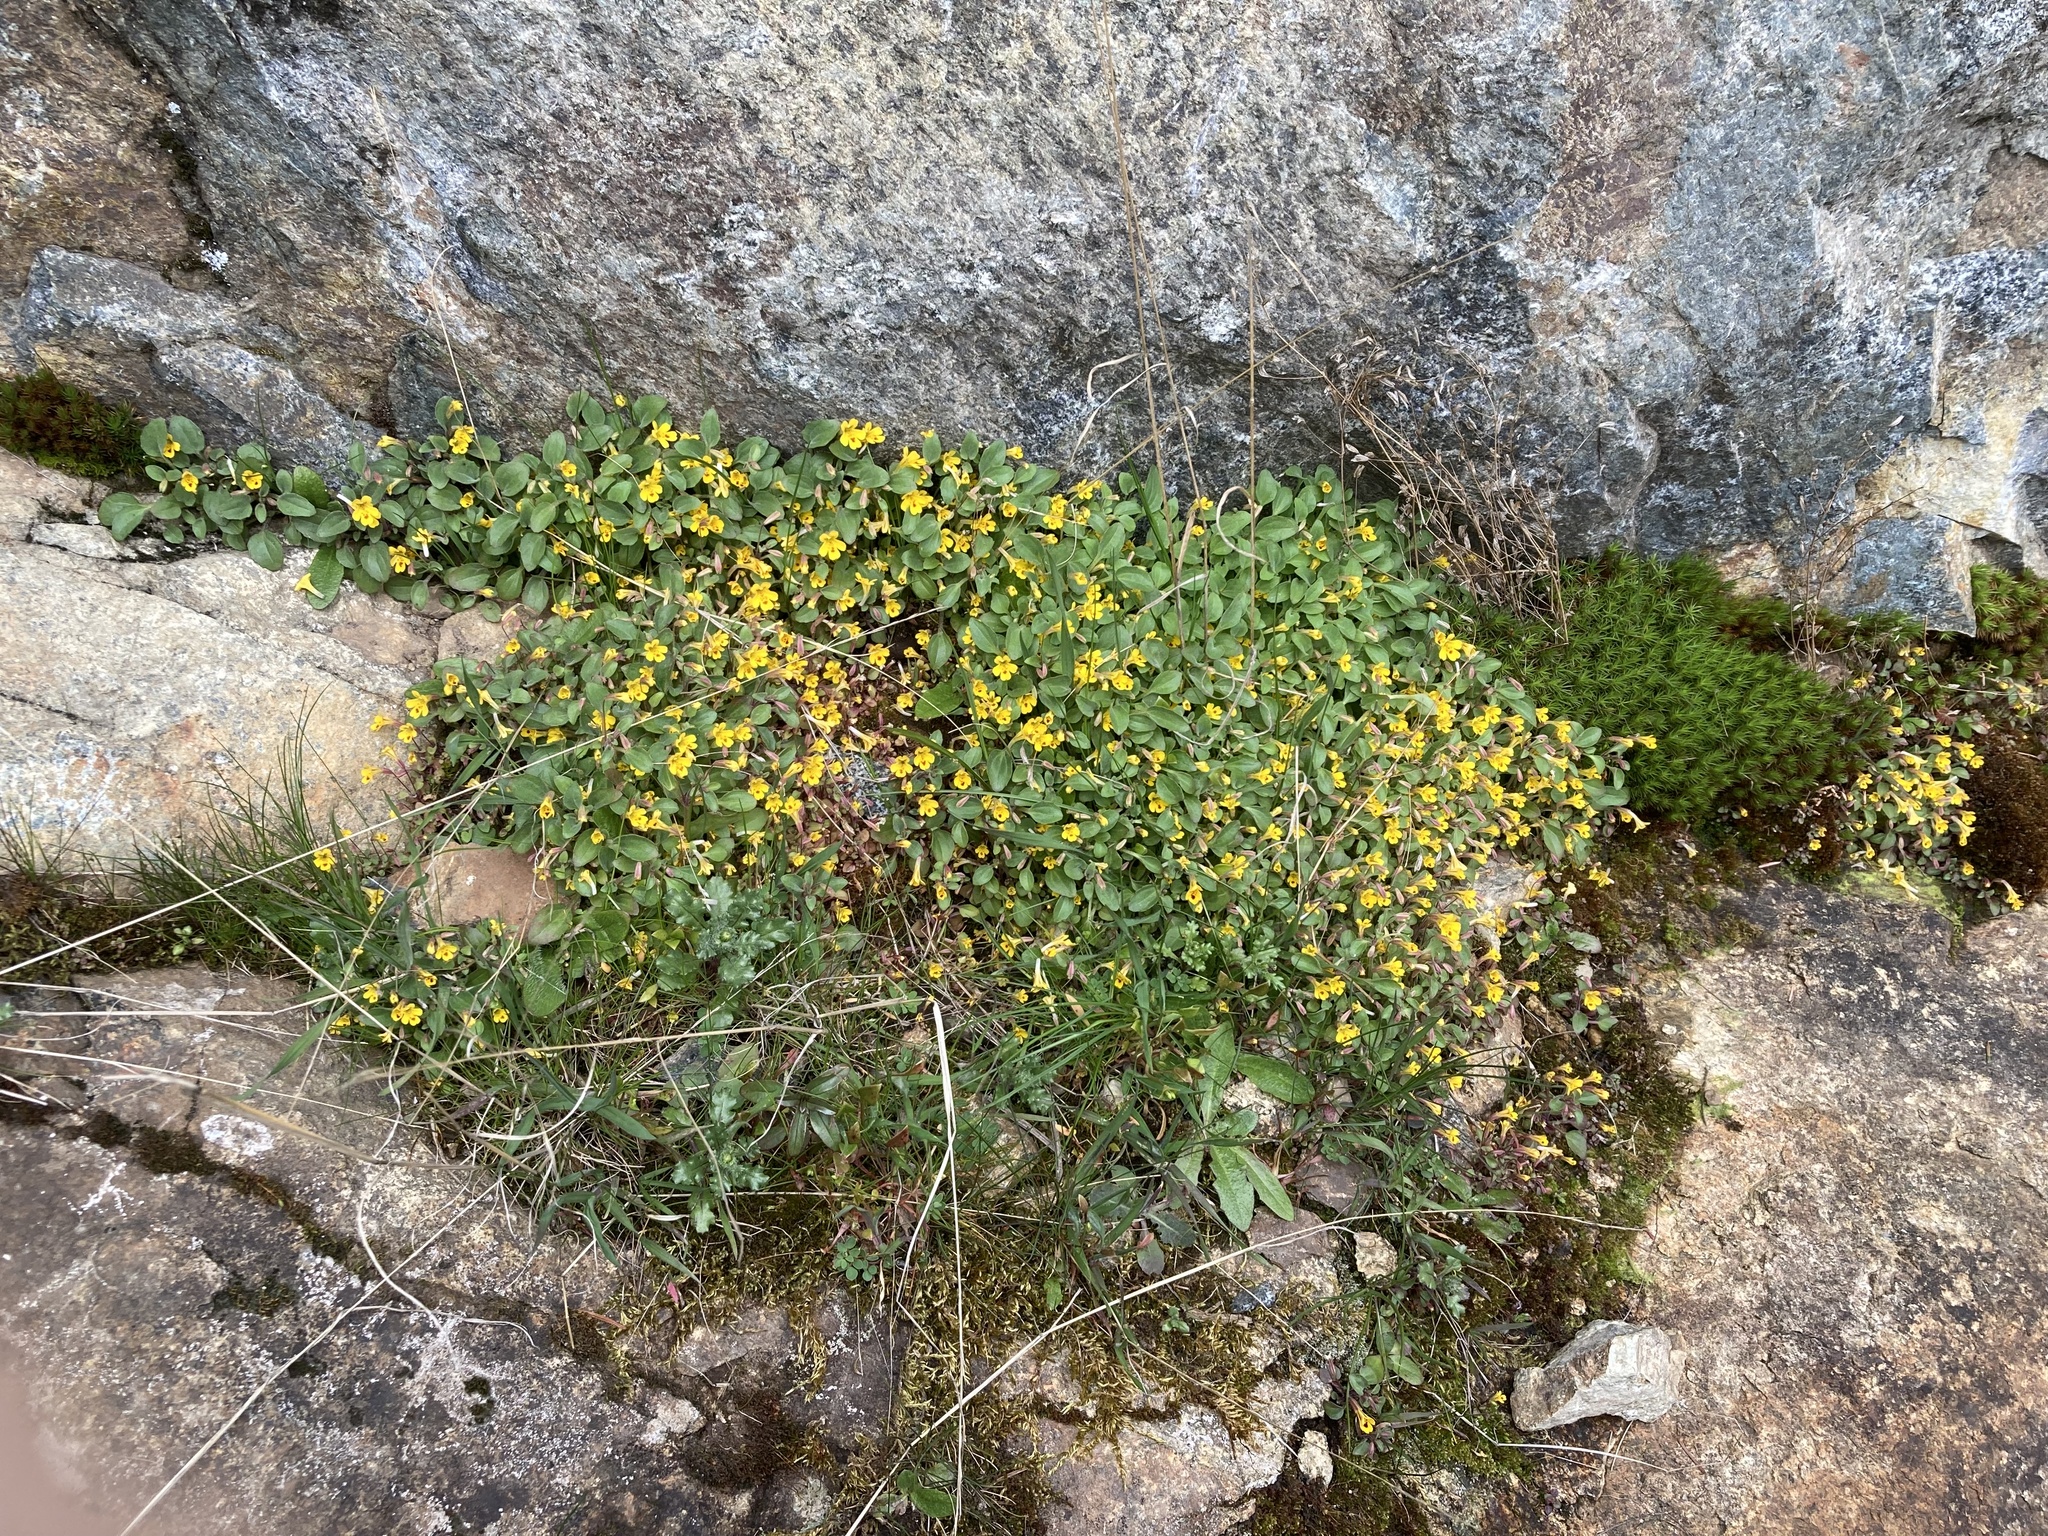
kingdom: Plantae
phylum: Tracheophyta
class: Magnoliopsida
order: Lamiales
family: Phrymaceae
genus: Erythranthe
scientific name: Erythranthe alsinoides
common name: Chickweed monkeyflower
